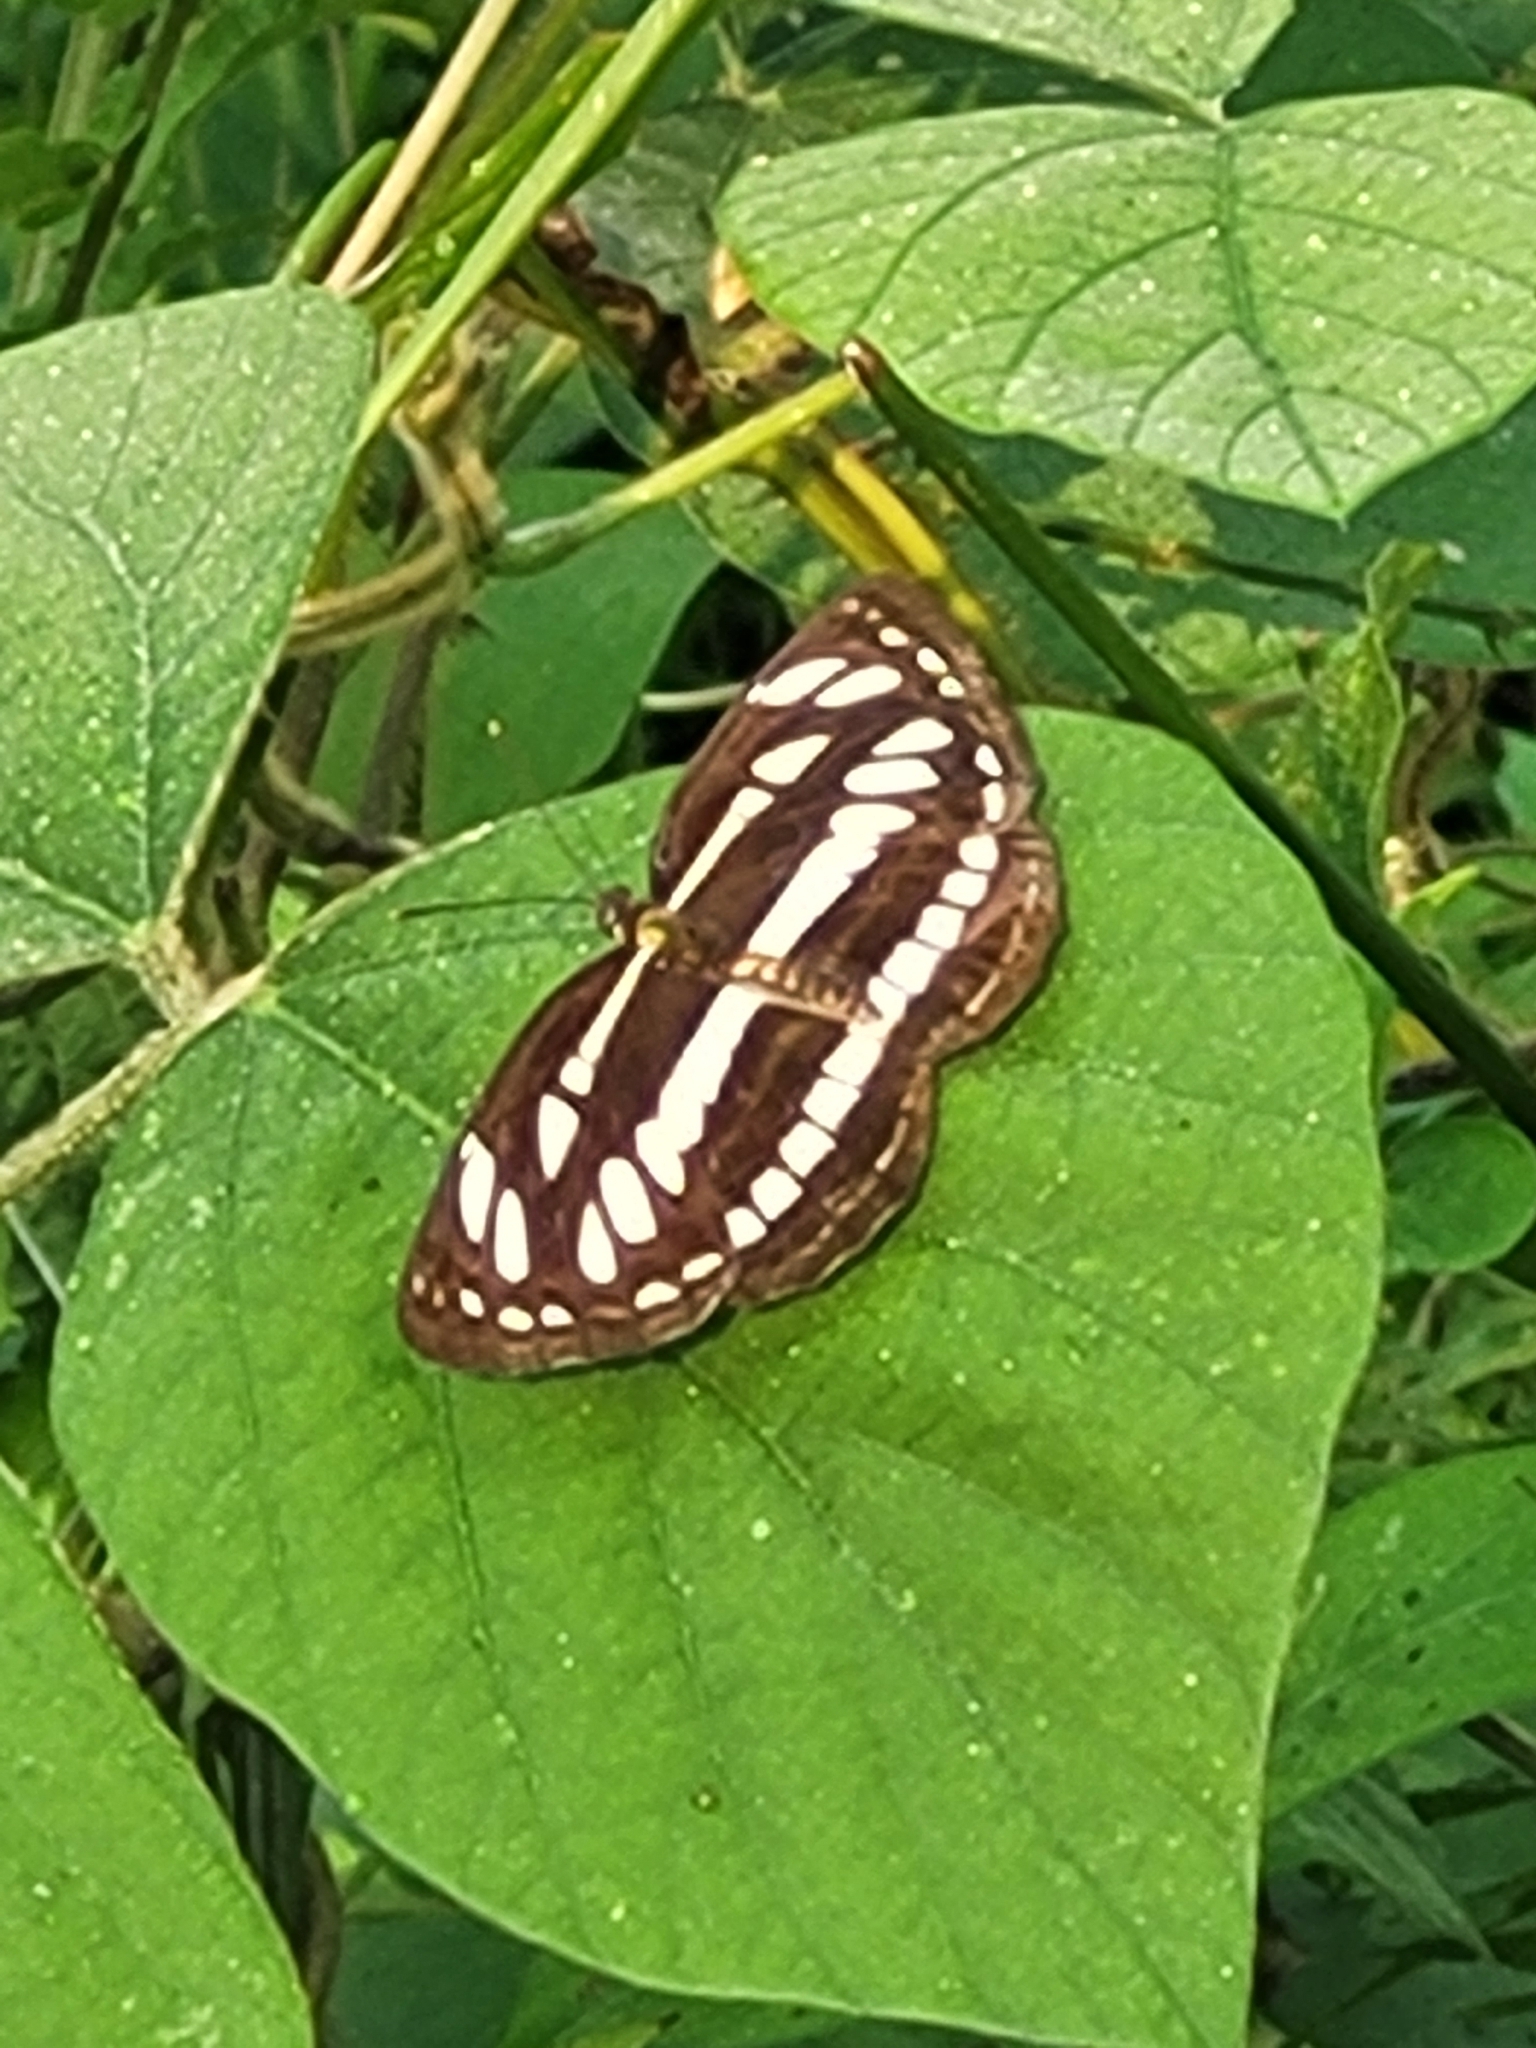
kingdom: Animalia
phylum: Arthropoda
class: Insecta
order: Lepidoptera
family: Nymphalidae
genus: Neptis
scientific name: Neptis hylas
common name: Common sailer
